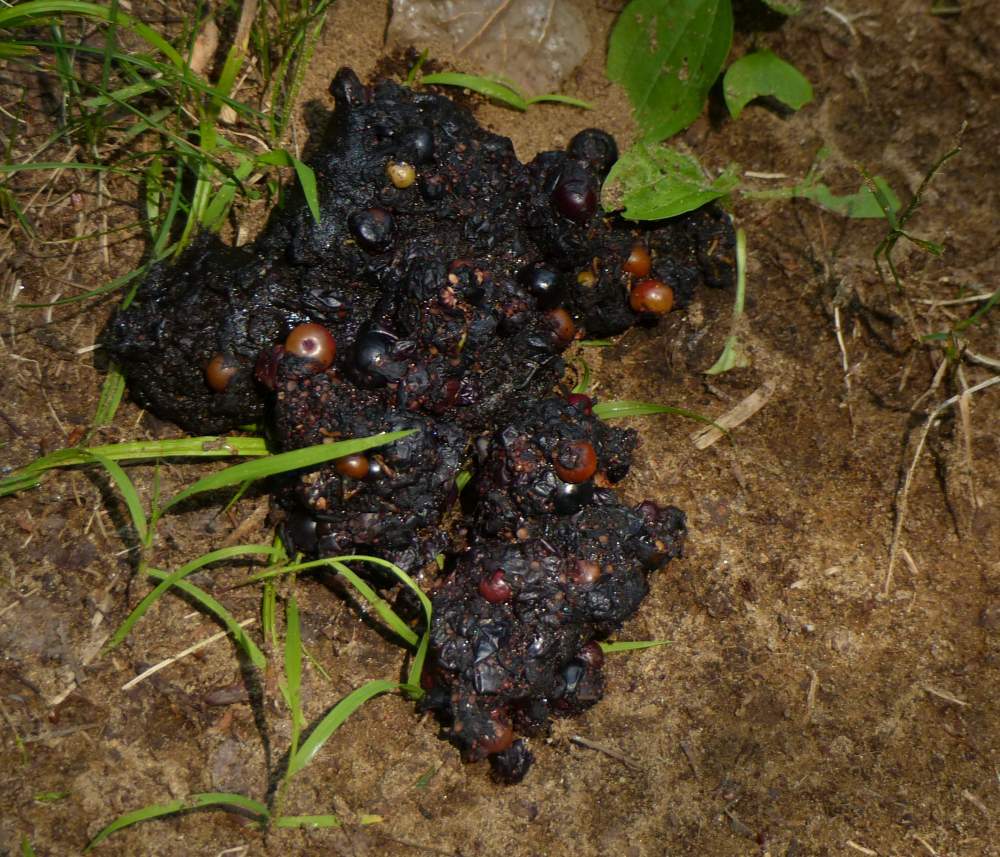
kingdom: Animalia
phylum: Chordata
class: Mammalia
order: Carnivora
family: Ursidae
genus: Ursus
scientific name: Ursus americanus
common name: American black bear
